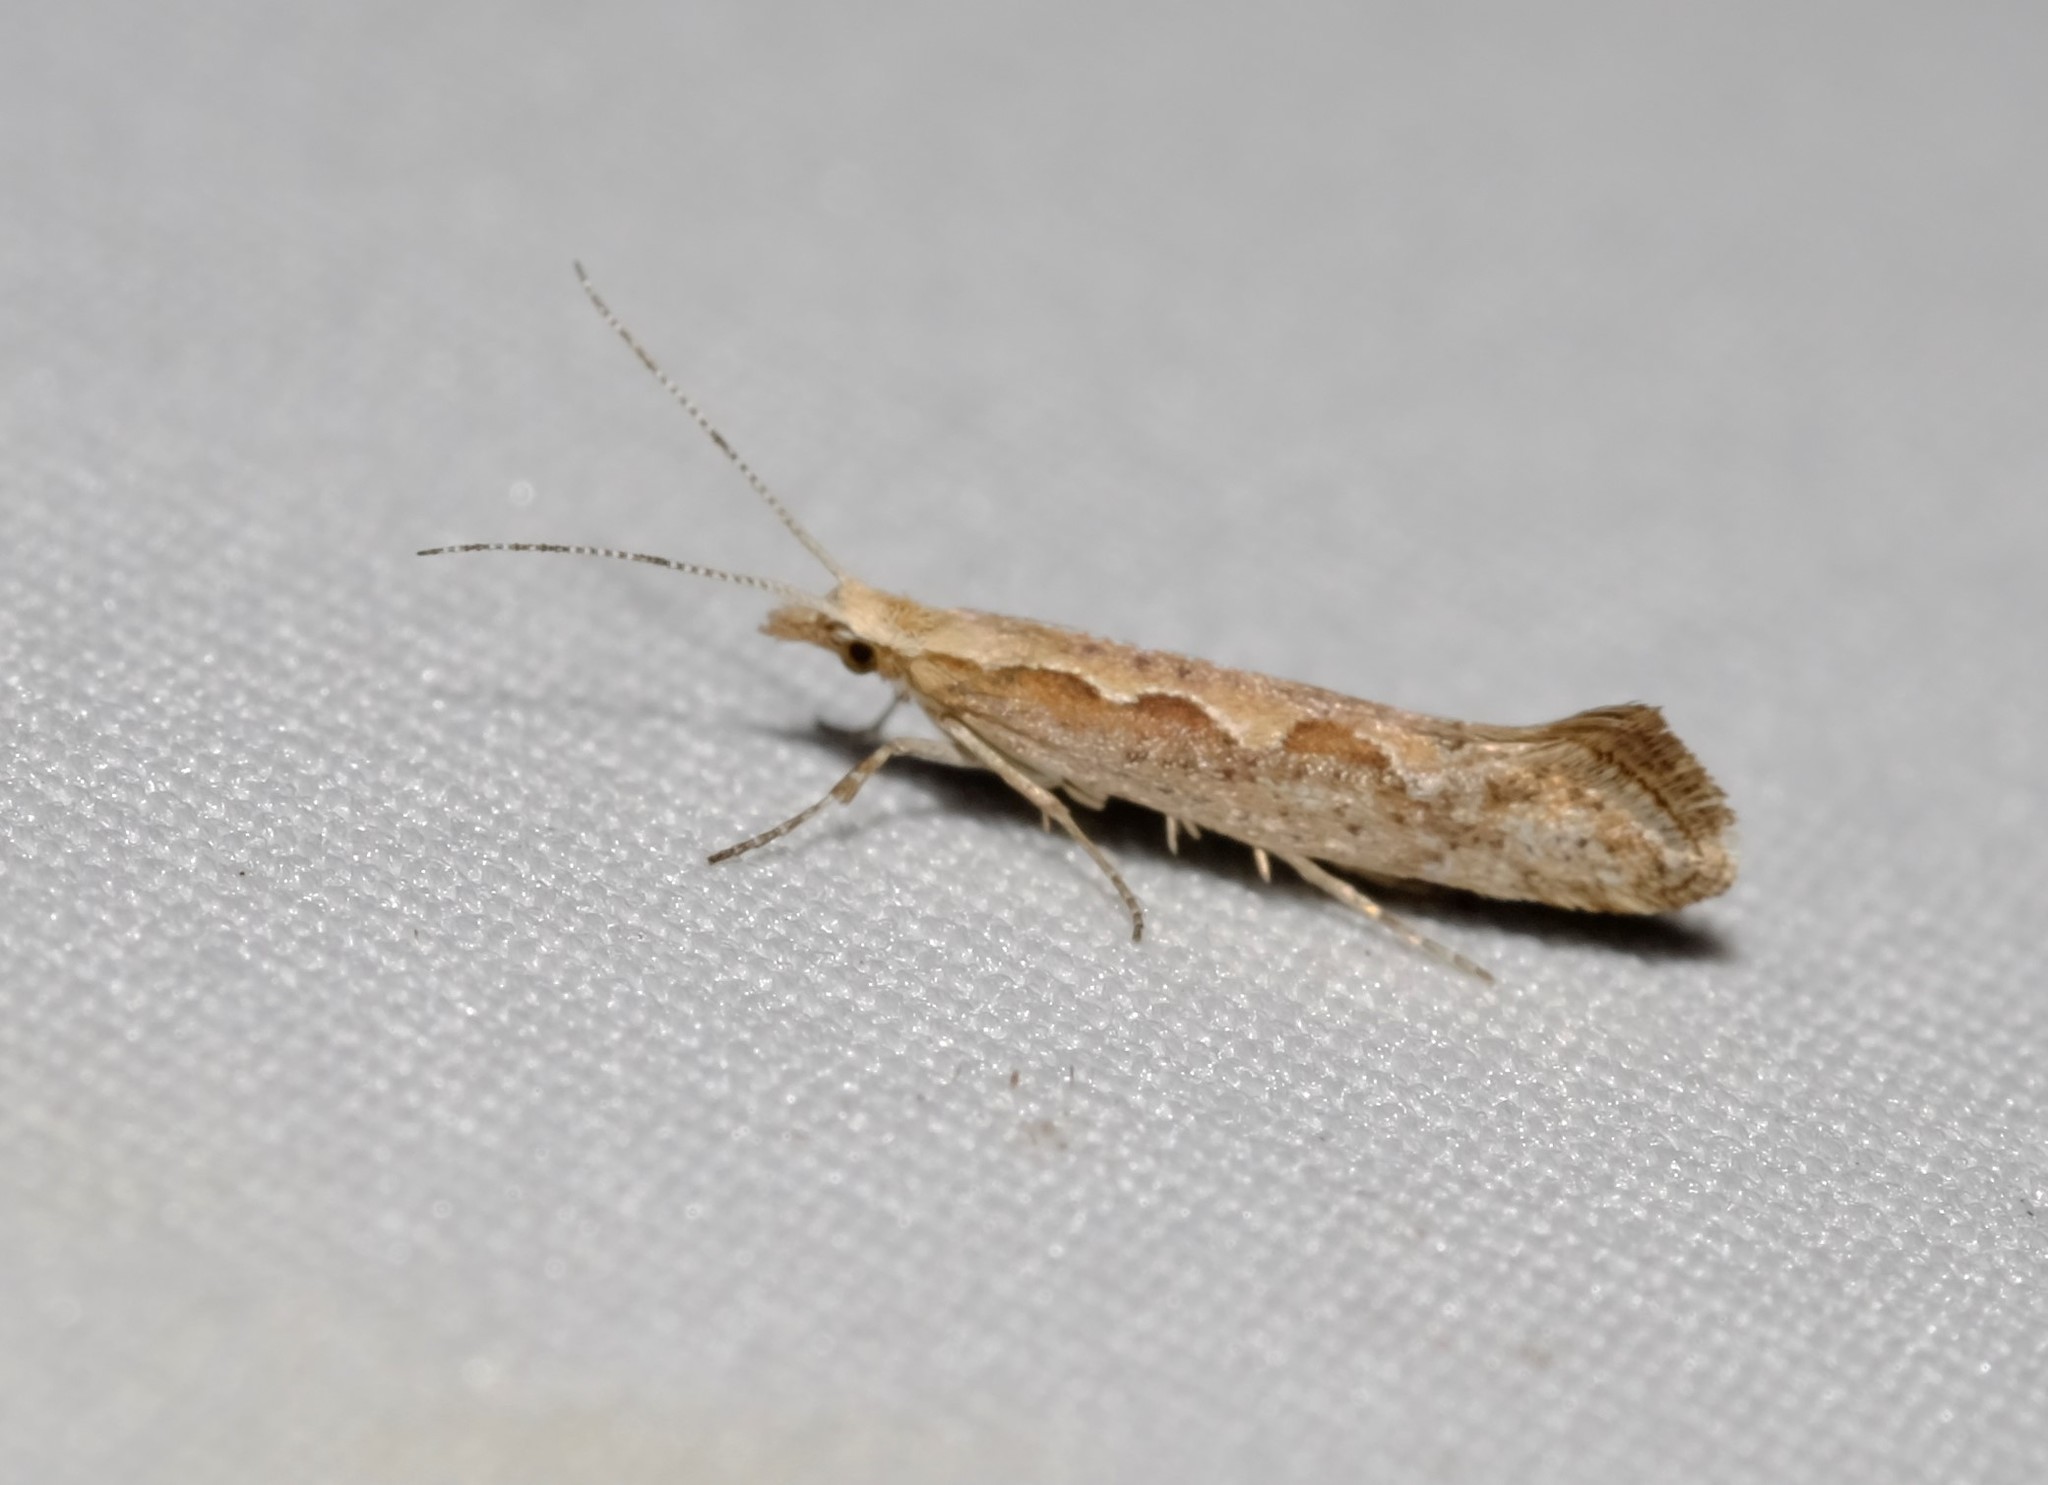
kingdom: Animalia
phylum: Arthropoda
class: Insecta
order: Lepidoptera
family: Plutellidae
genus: Plutella
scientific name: Plutella
